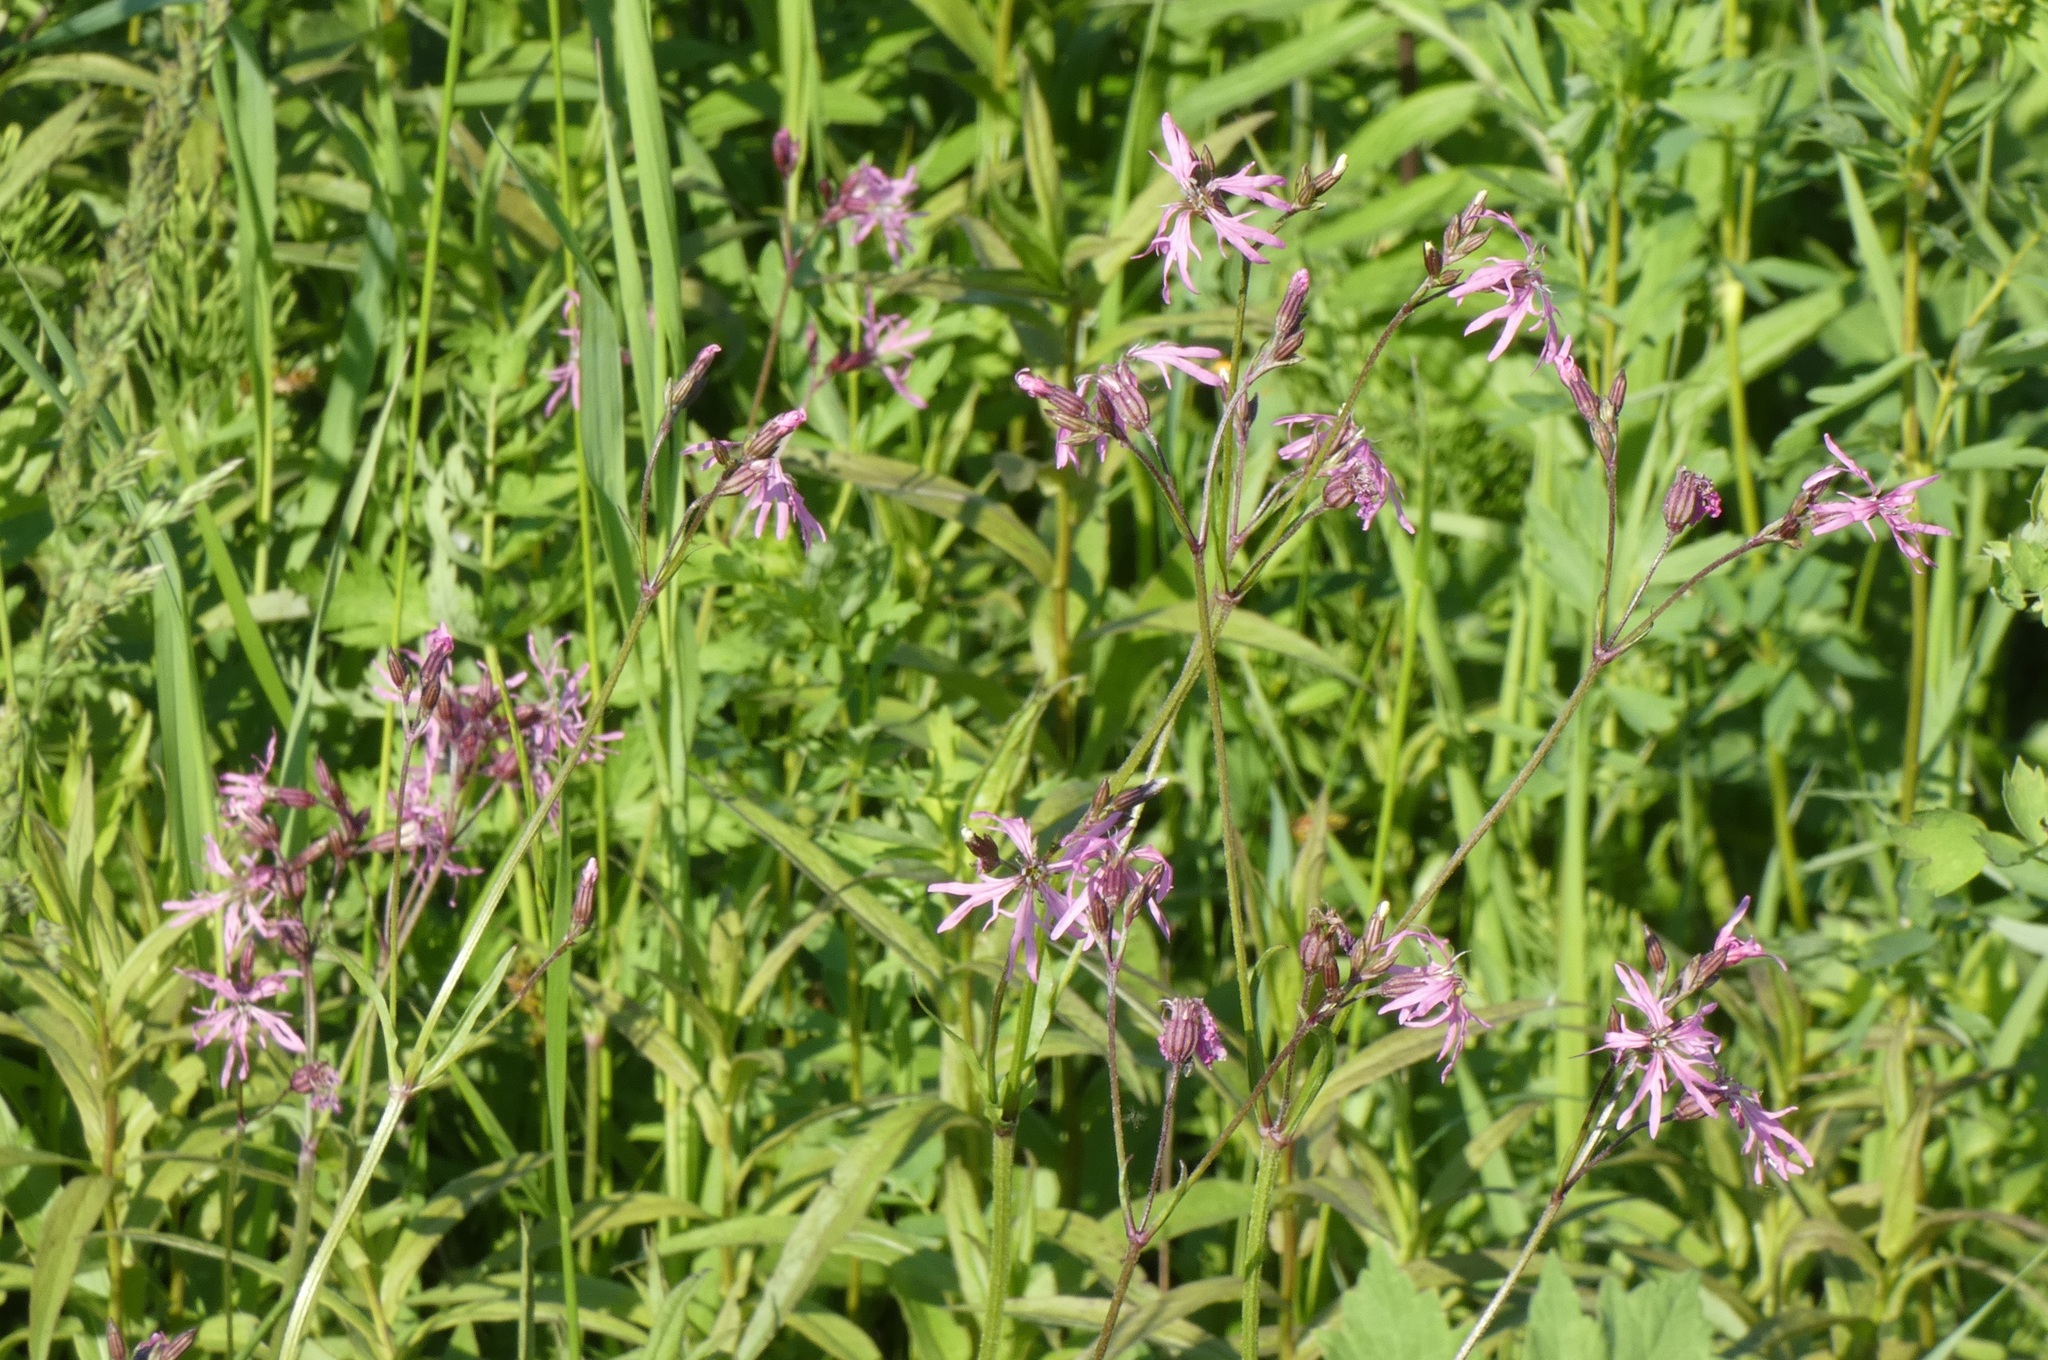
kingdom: Plantae
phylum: Tracheophyta
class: Magnoliopsida
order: Caryophyllales
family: Caryophyllaceae
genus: Silene
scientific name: Silene flos-cuculi
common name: Ragged-robin
